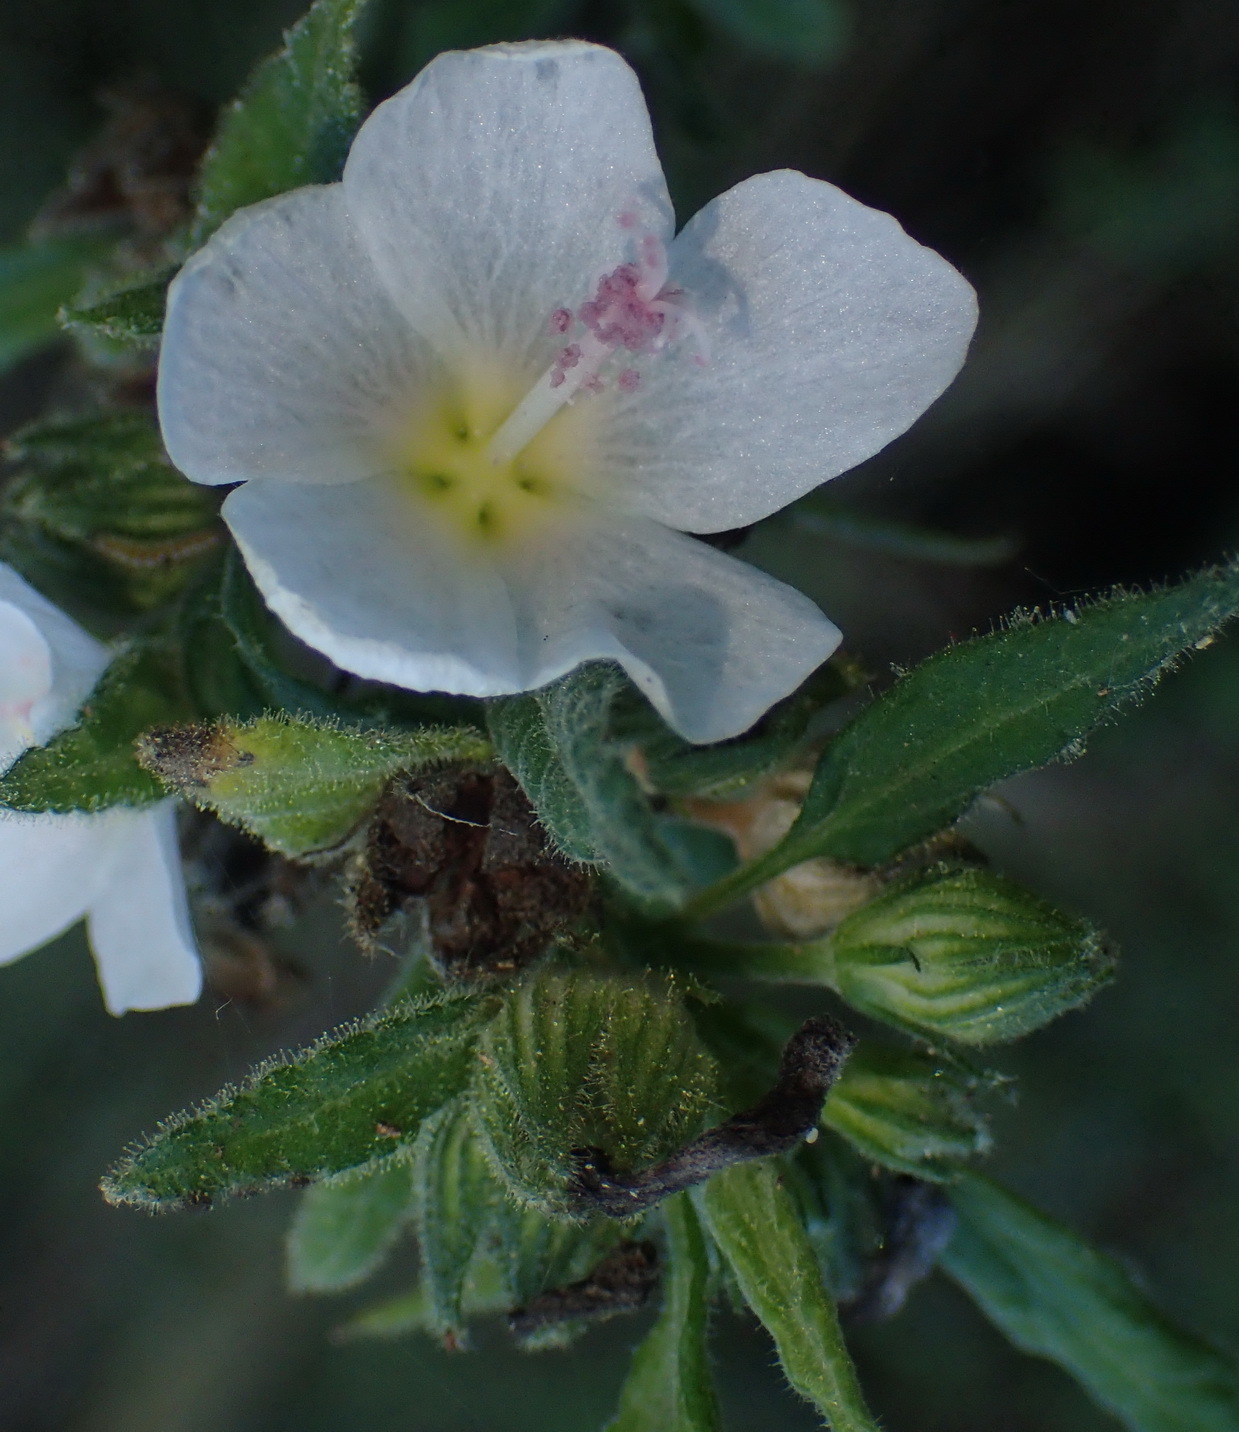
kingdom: Plantae
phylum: Tracheophyta
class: Magnoliopsida
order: Malvales
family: Malvaceae
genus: Pavonia
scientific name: Pavonia columella
